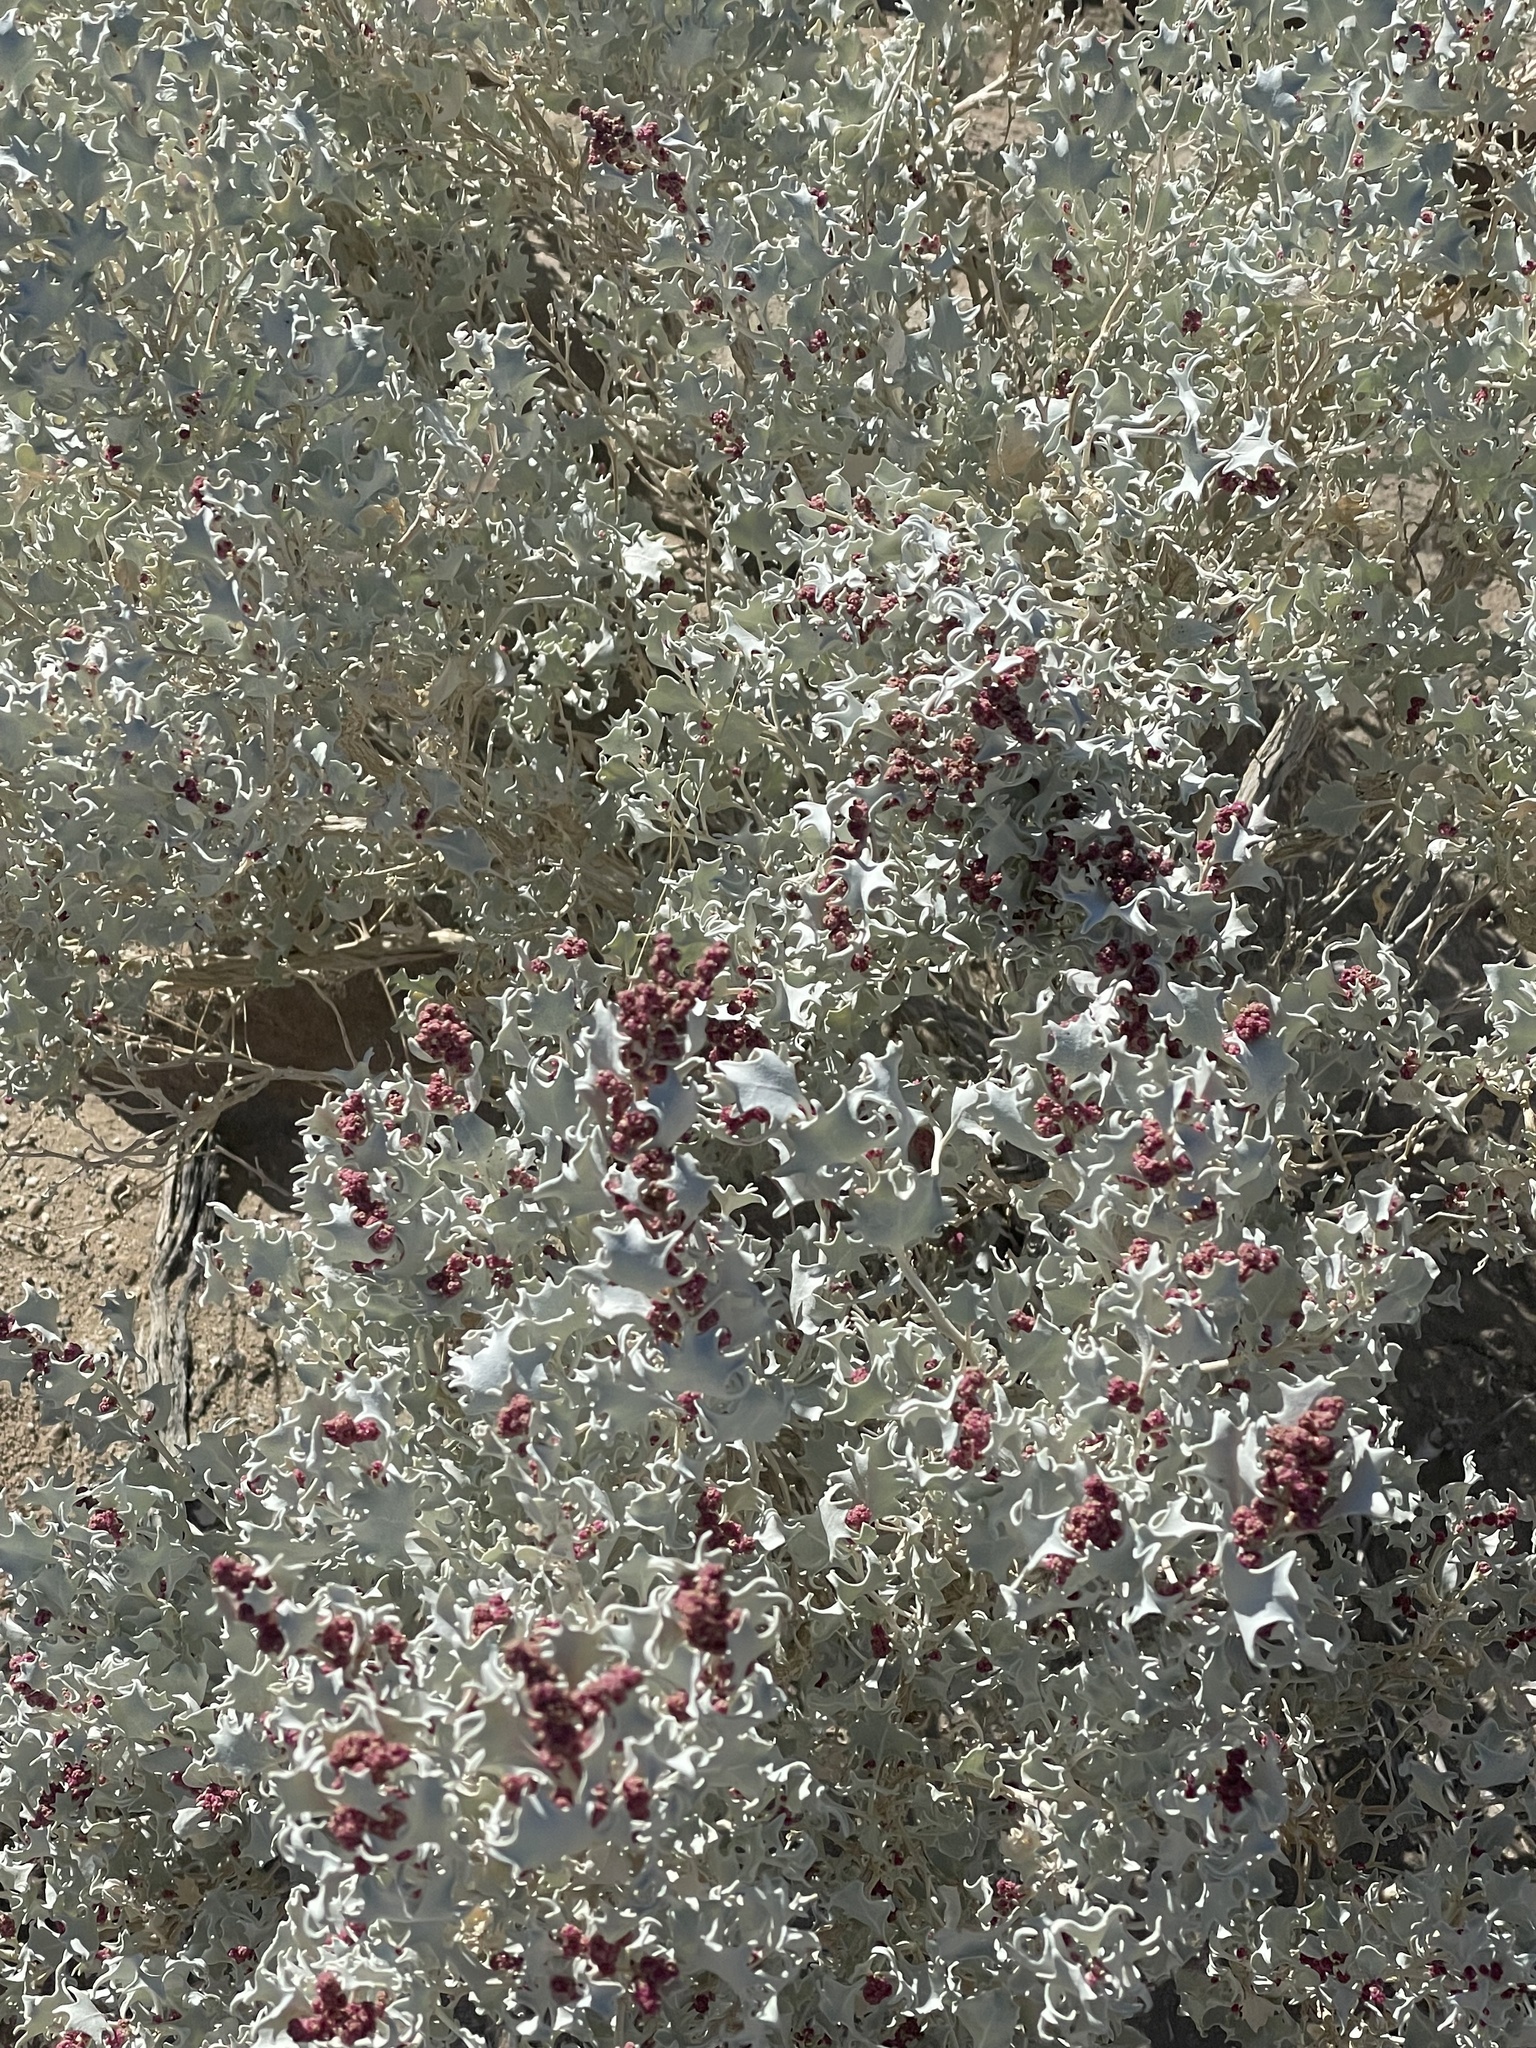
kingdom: Plantae
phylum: Tracheophyta
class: Magnoliopsida
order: Caryophyllales
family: Amaranthaceae
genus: Atriplex
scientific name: Atriplex hymenelytra
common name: Desert-holly
